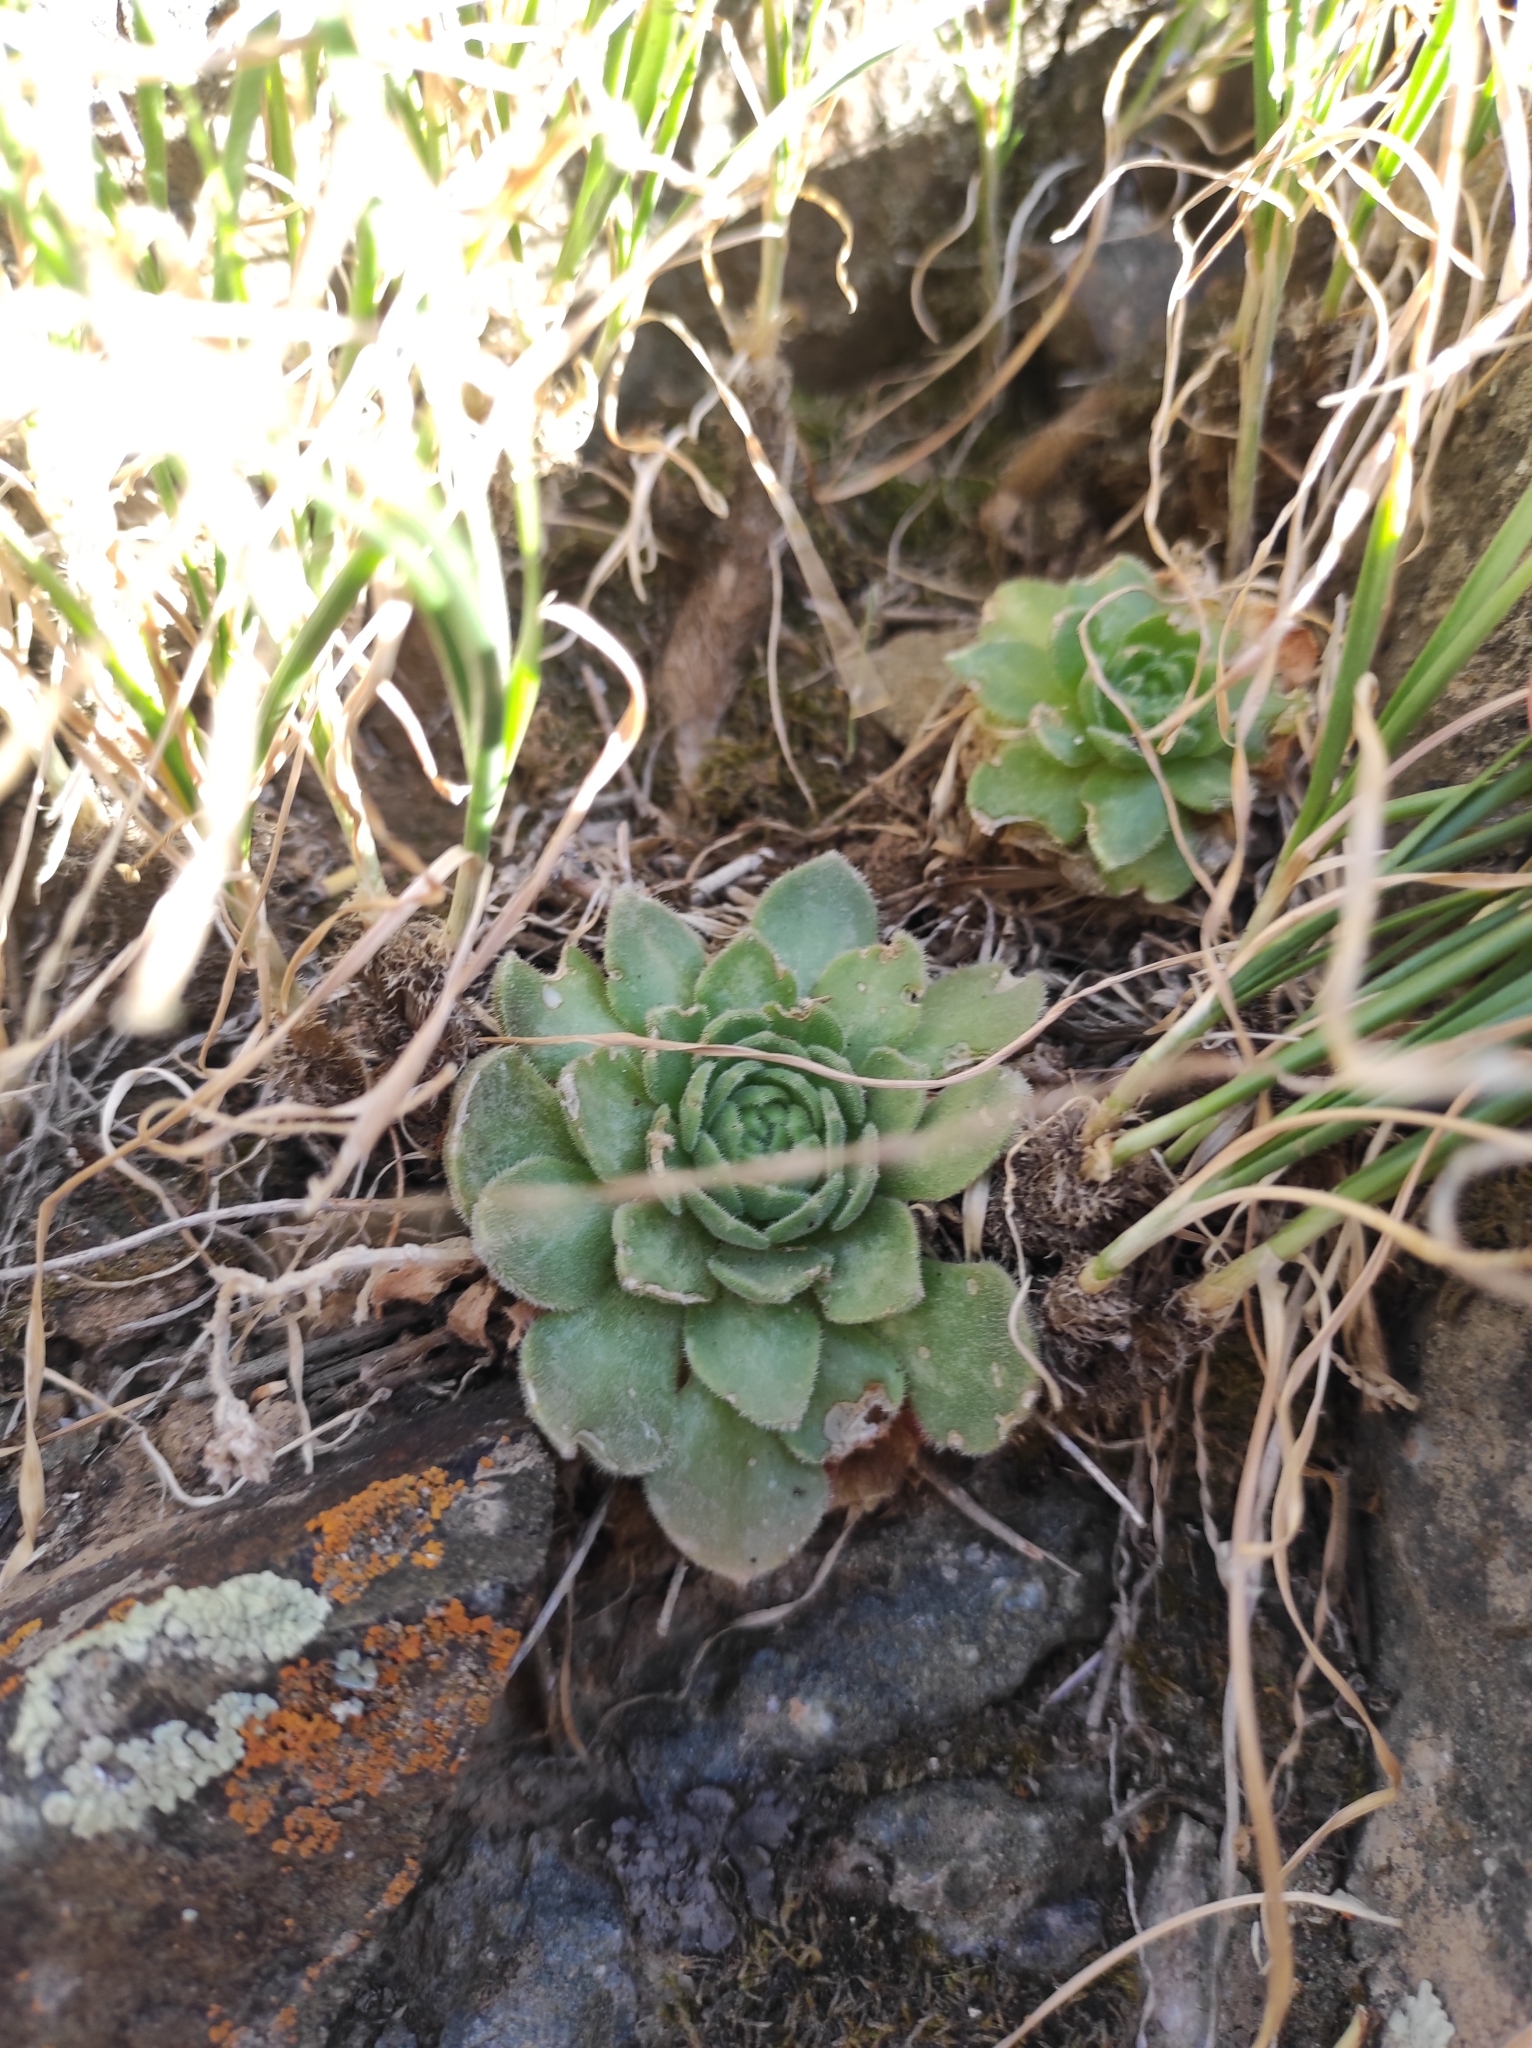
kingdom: Plantae
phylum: Tracheophyta
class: Magnoliopsida
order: Saxifragales
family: Crassulaceae
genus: Rosularia
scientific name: Rosularia platyphylla
